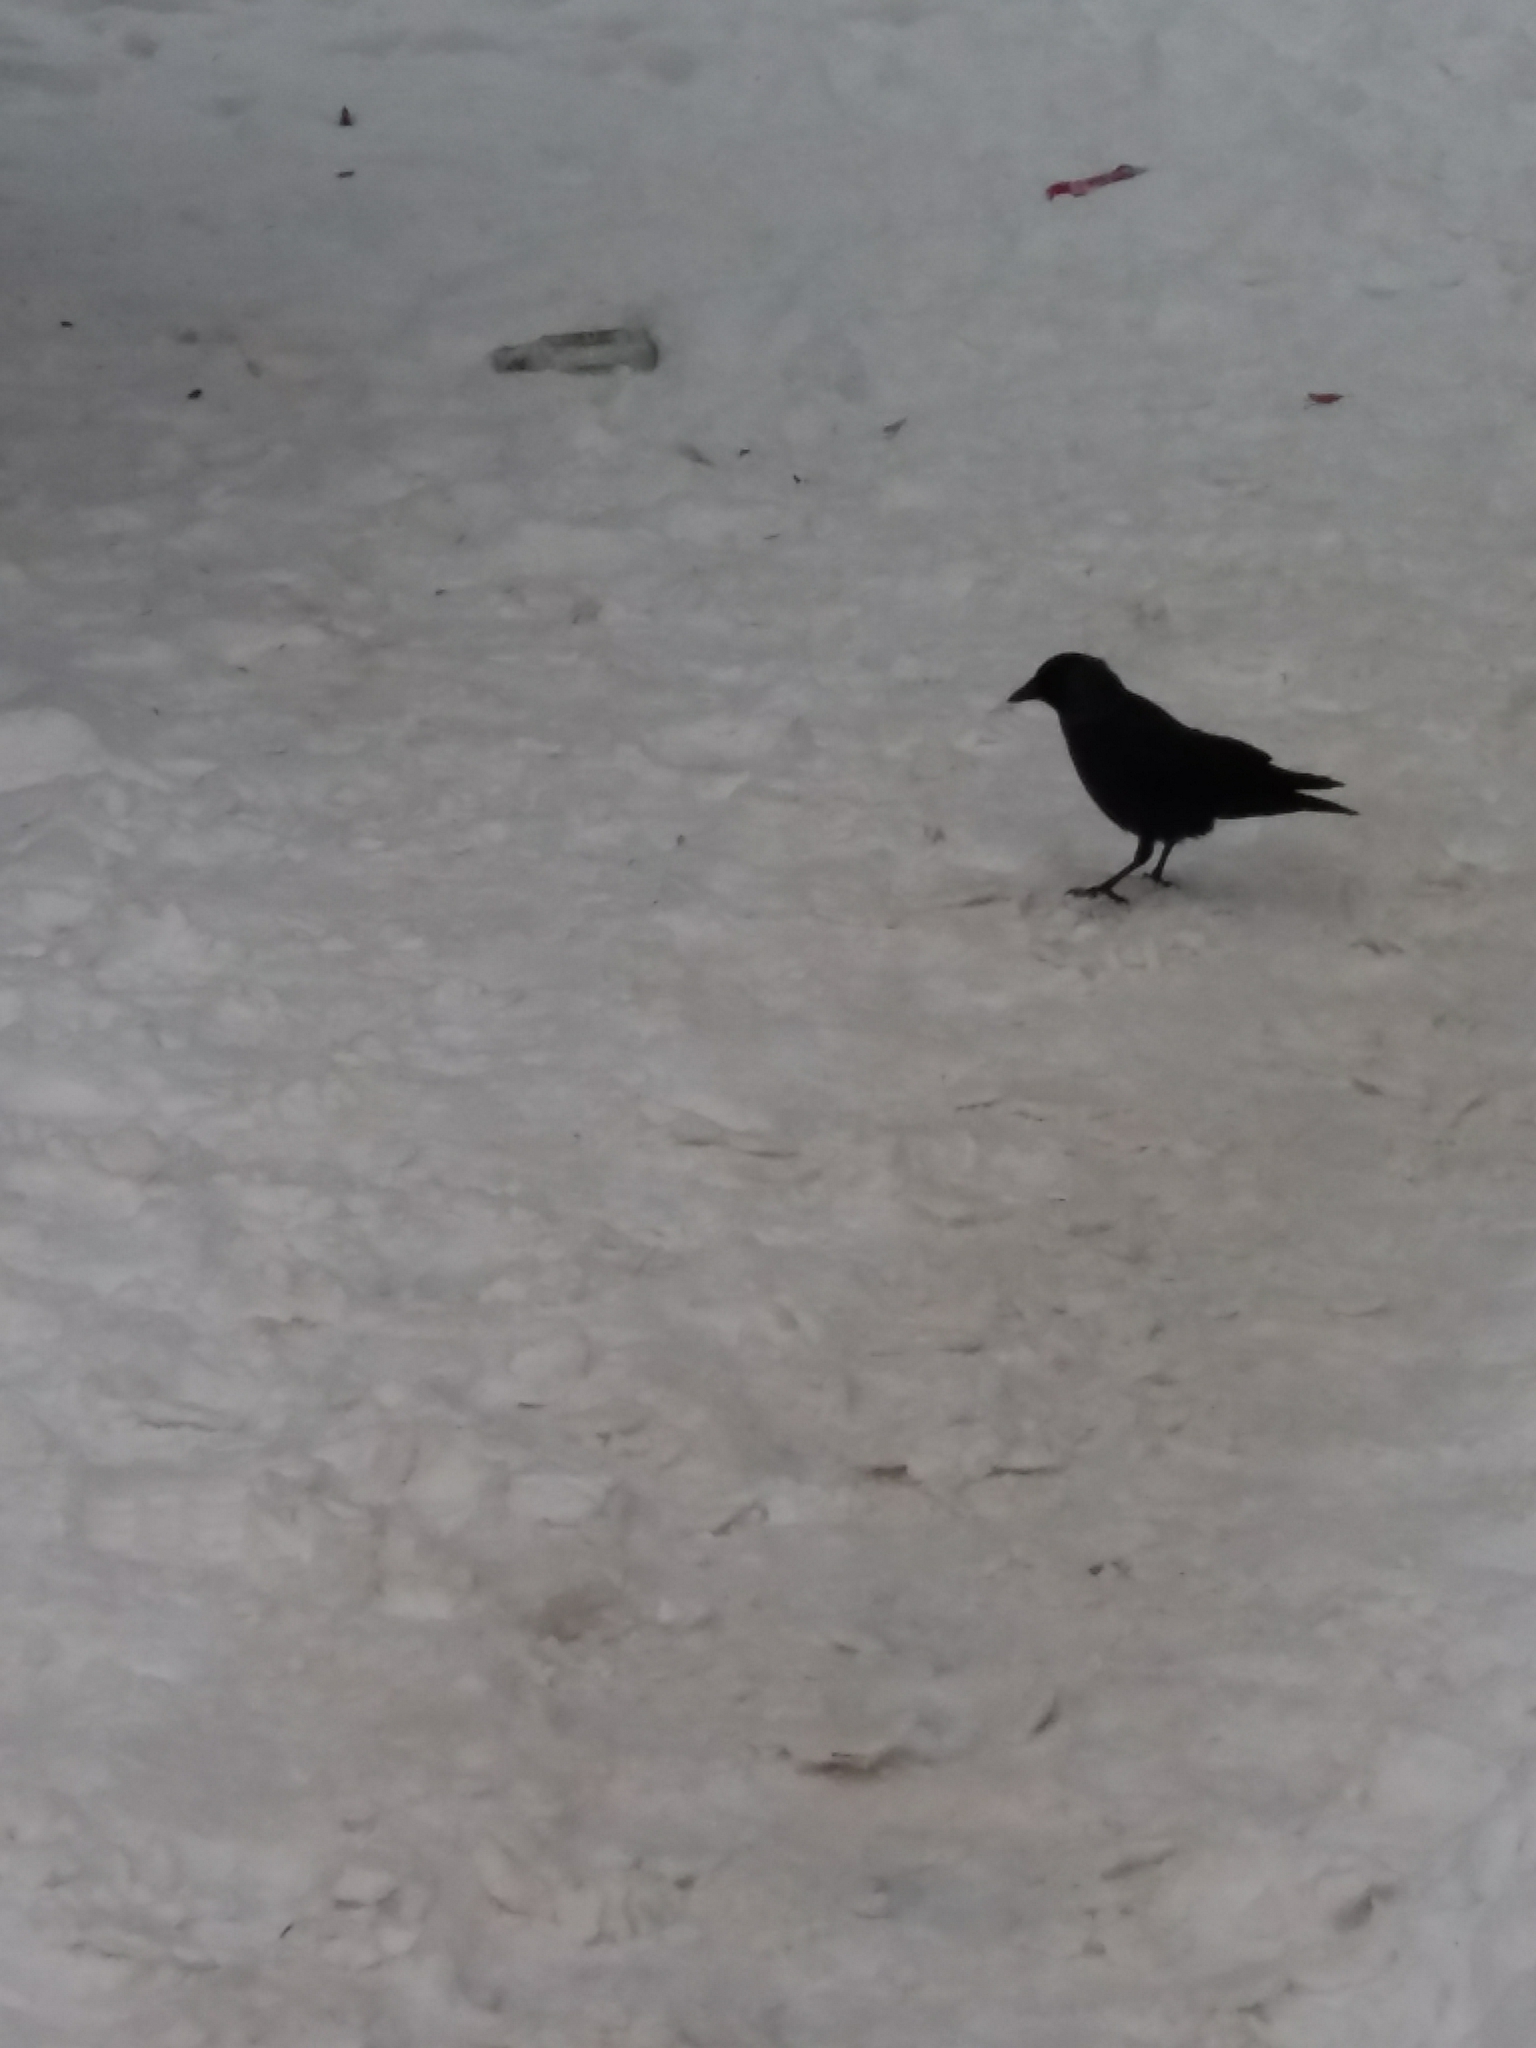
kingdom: Animalia
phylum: Chordata
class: Aves
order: Passeriformes
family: Corvidae
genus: Coloeus
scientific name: Coloeus monedula
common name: Western jackdaw
